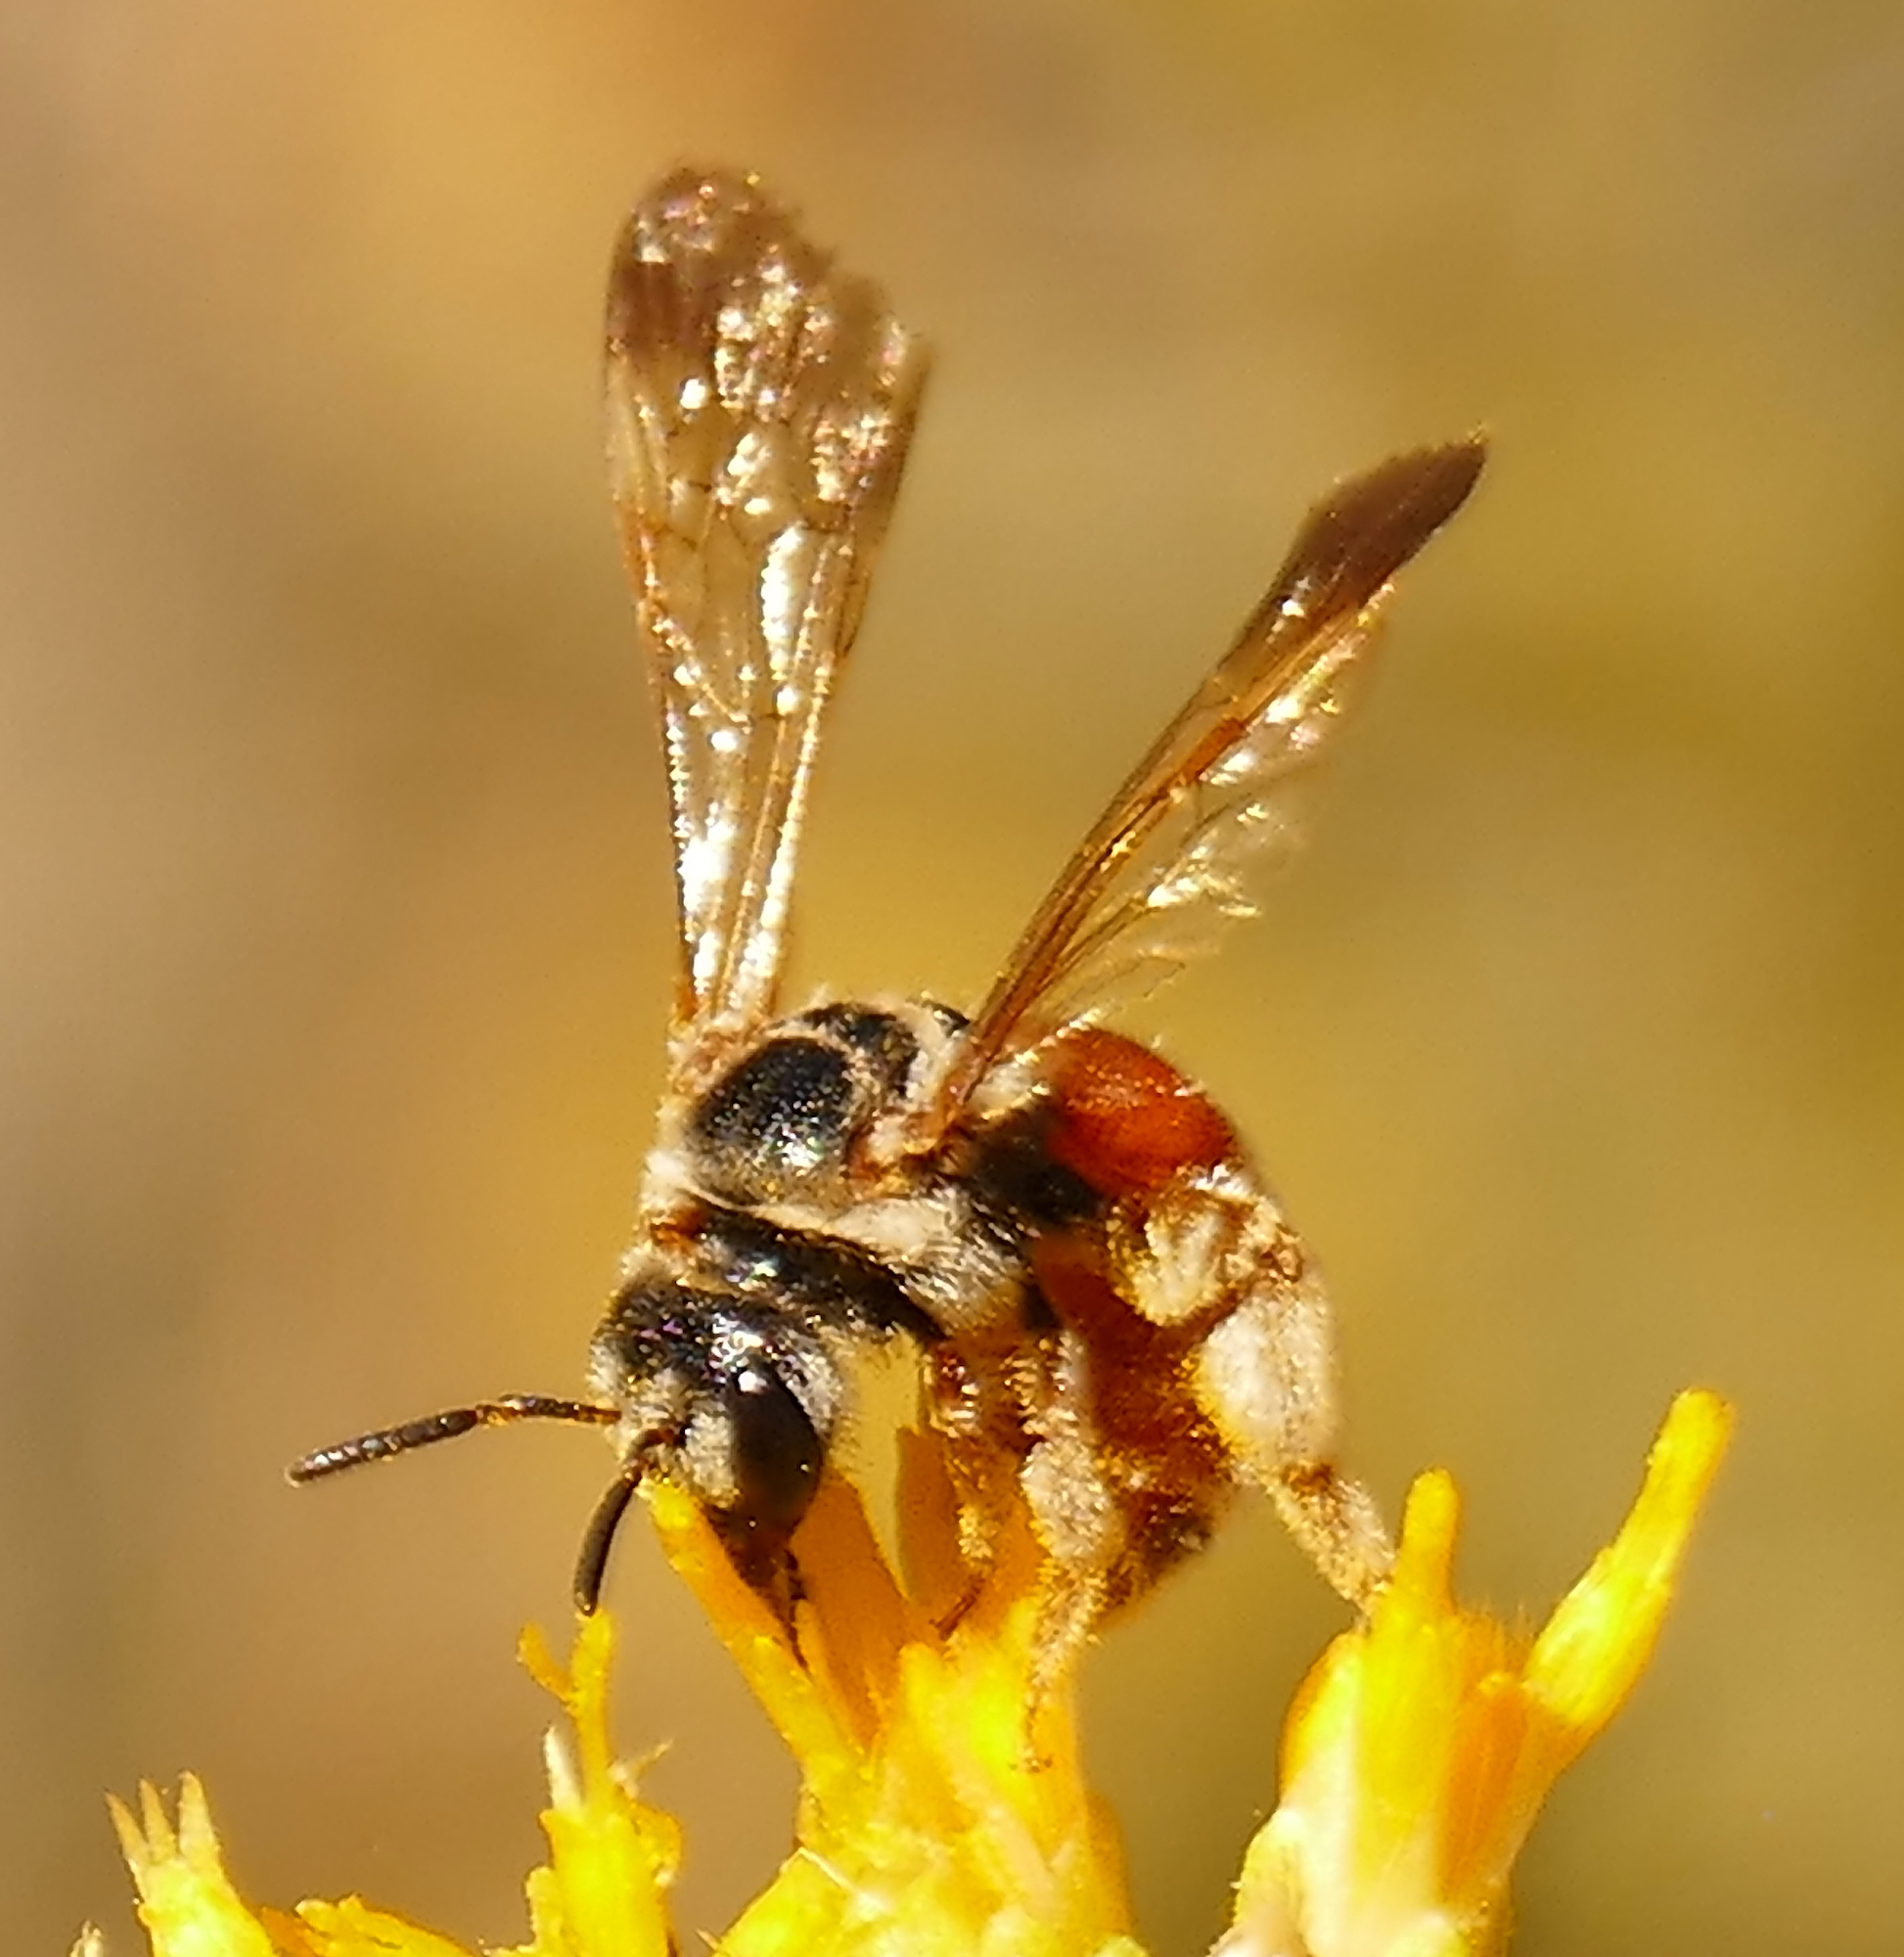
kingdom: Animalia
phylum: Arthropoda
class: Insecta
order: Hymenoptera
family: Halictidae
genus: Dieunomia
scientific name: Dieunomia nevadensis
